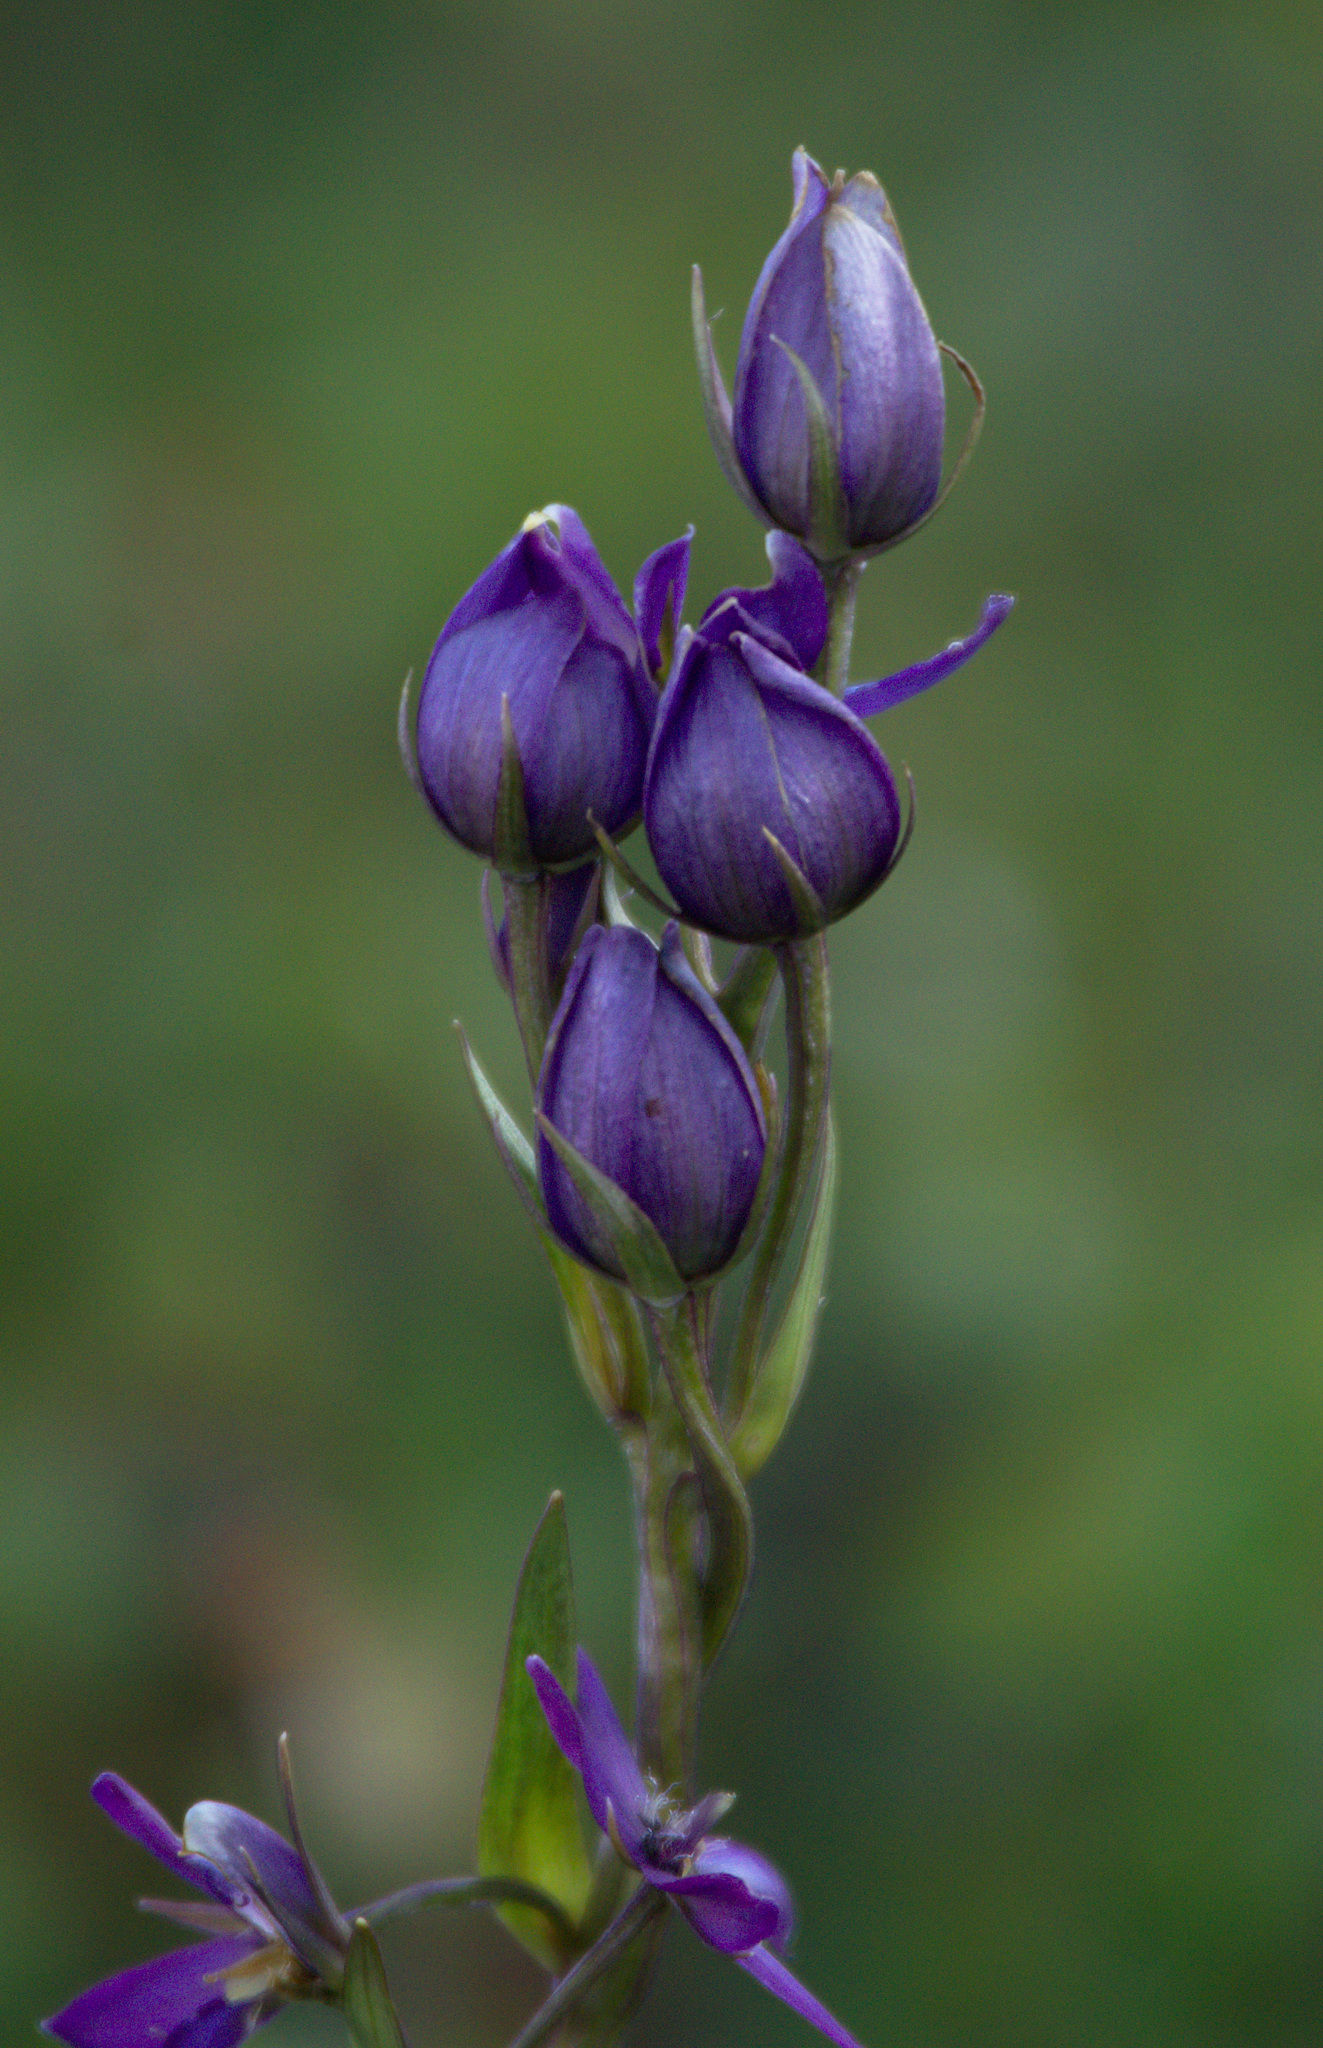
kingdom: Plantae
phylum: Tracheophyta
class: Magnoliopsida
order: Gentianales
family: Gentianaceae
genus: Swertia
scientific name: Swertia obtusa
